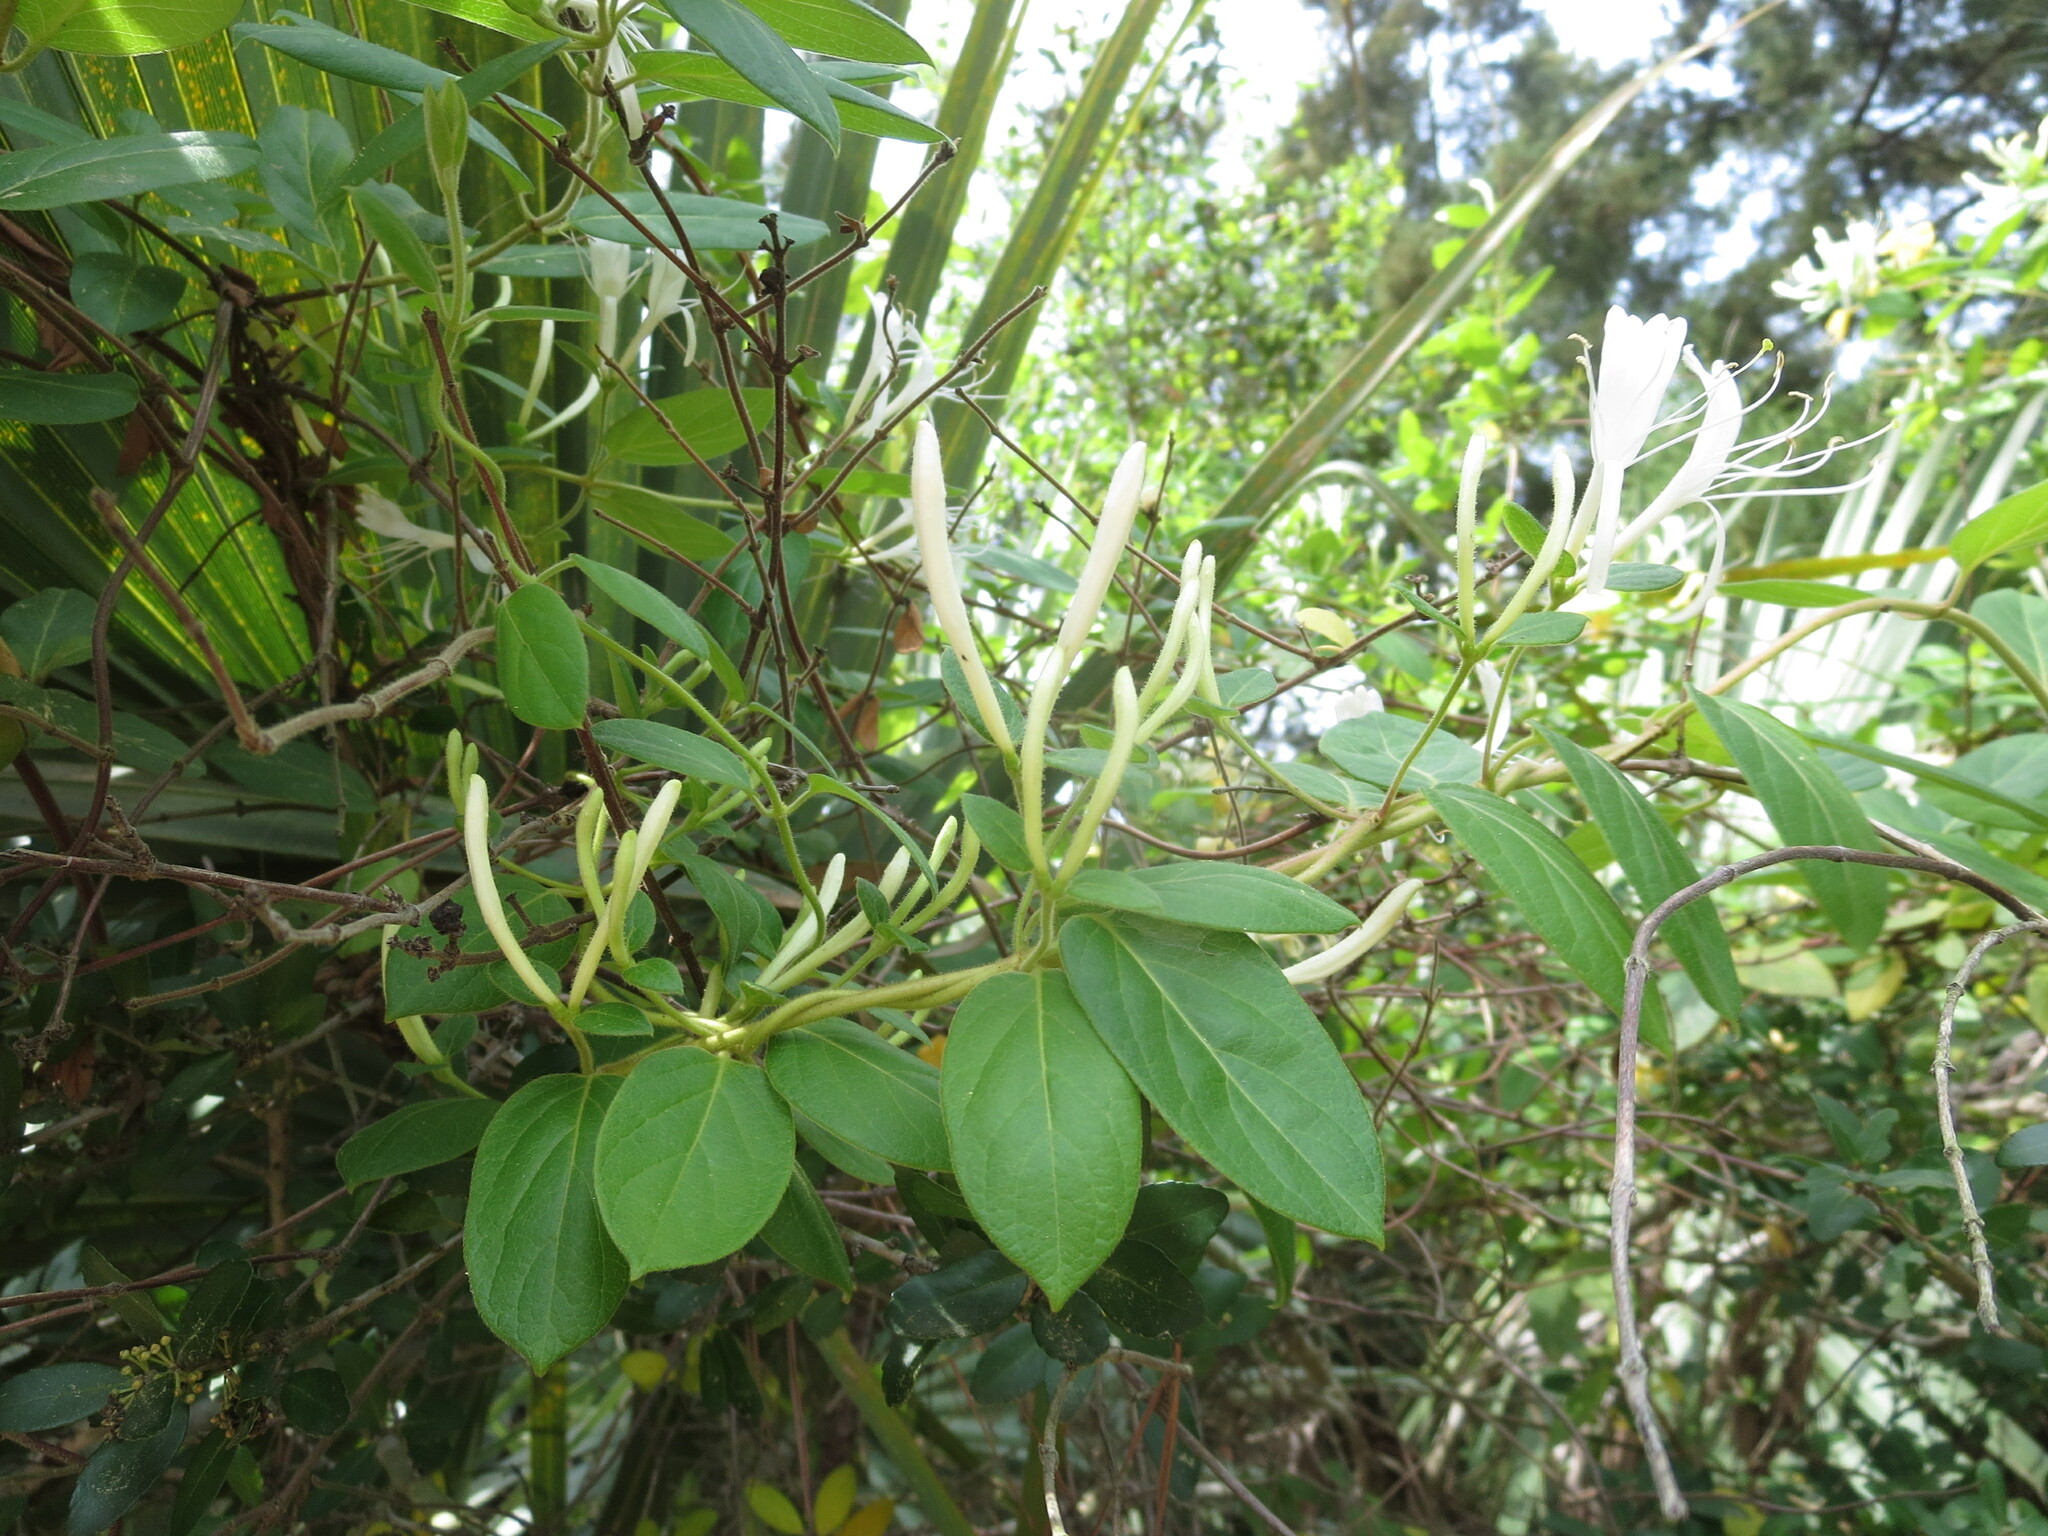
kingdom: Plantae
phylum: Tracheophyta
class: Magnoliopsida
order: Dipsacales
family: Caprifoliaceae
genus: Lonicera
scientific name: Lonicera japonica
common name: Japanese honeysuckle
